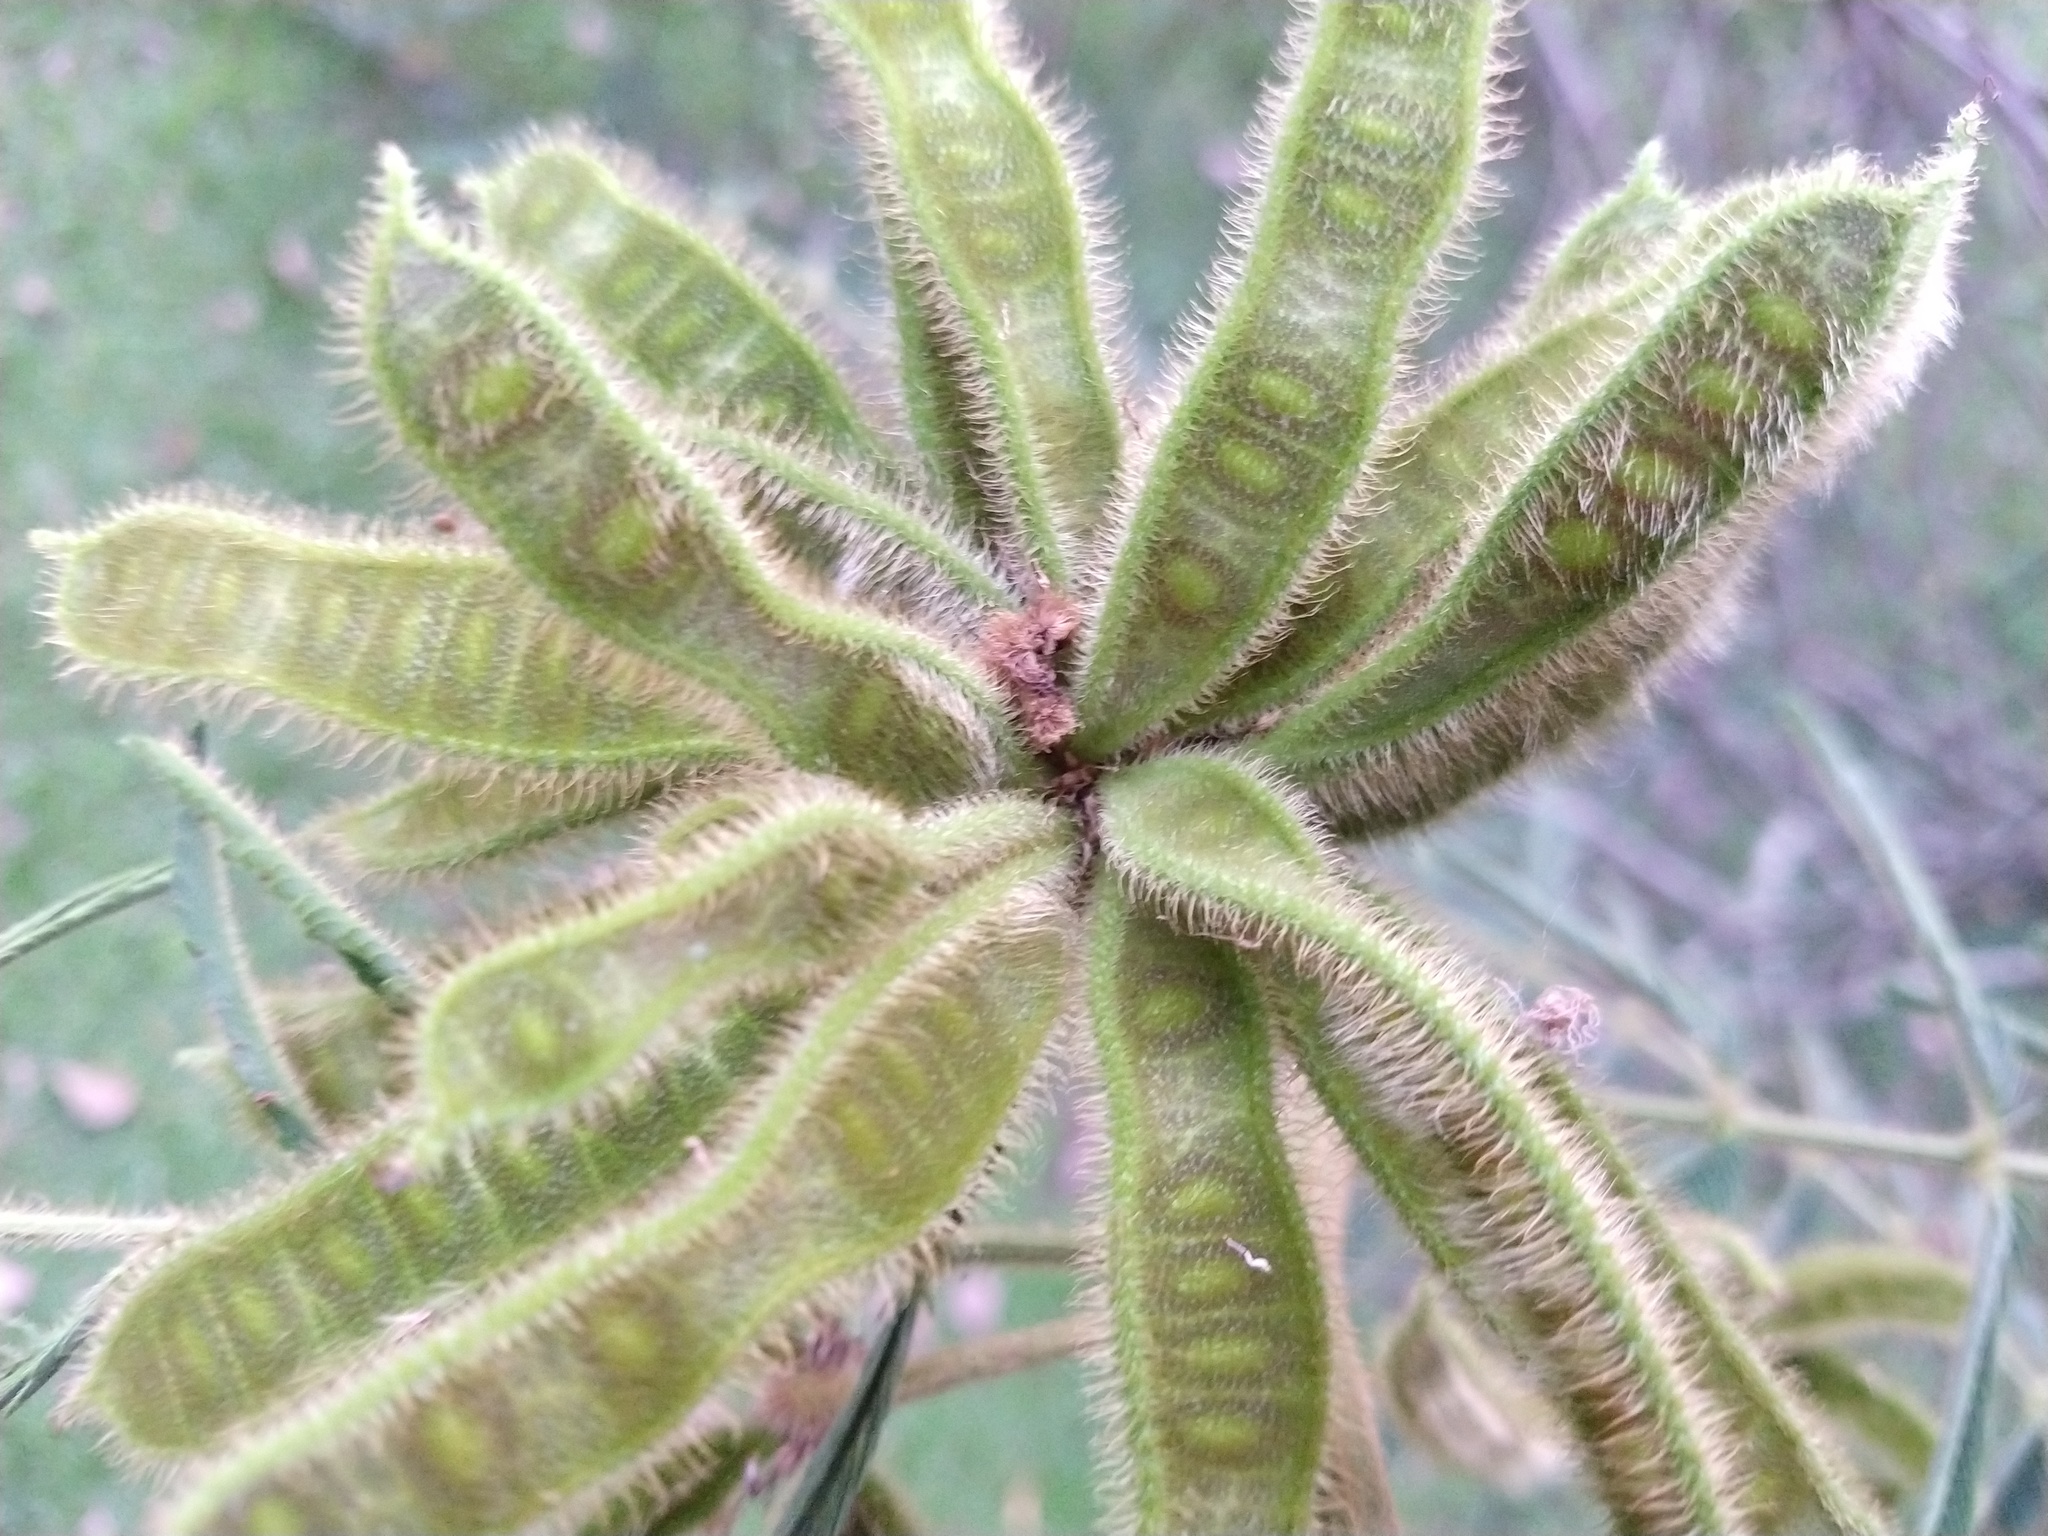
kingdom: Plantae
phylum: Tracheophyta
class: Magnoliopsida
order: Fabales
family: Fabaceae
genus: Mimosa
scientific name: Mimosa pigra
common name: Black mimosa
